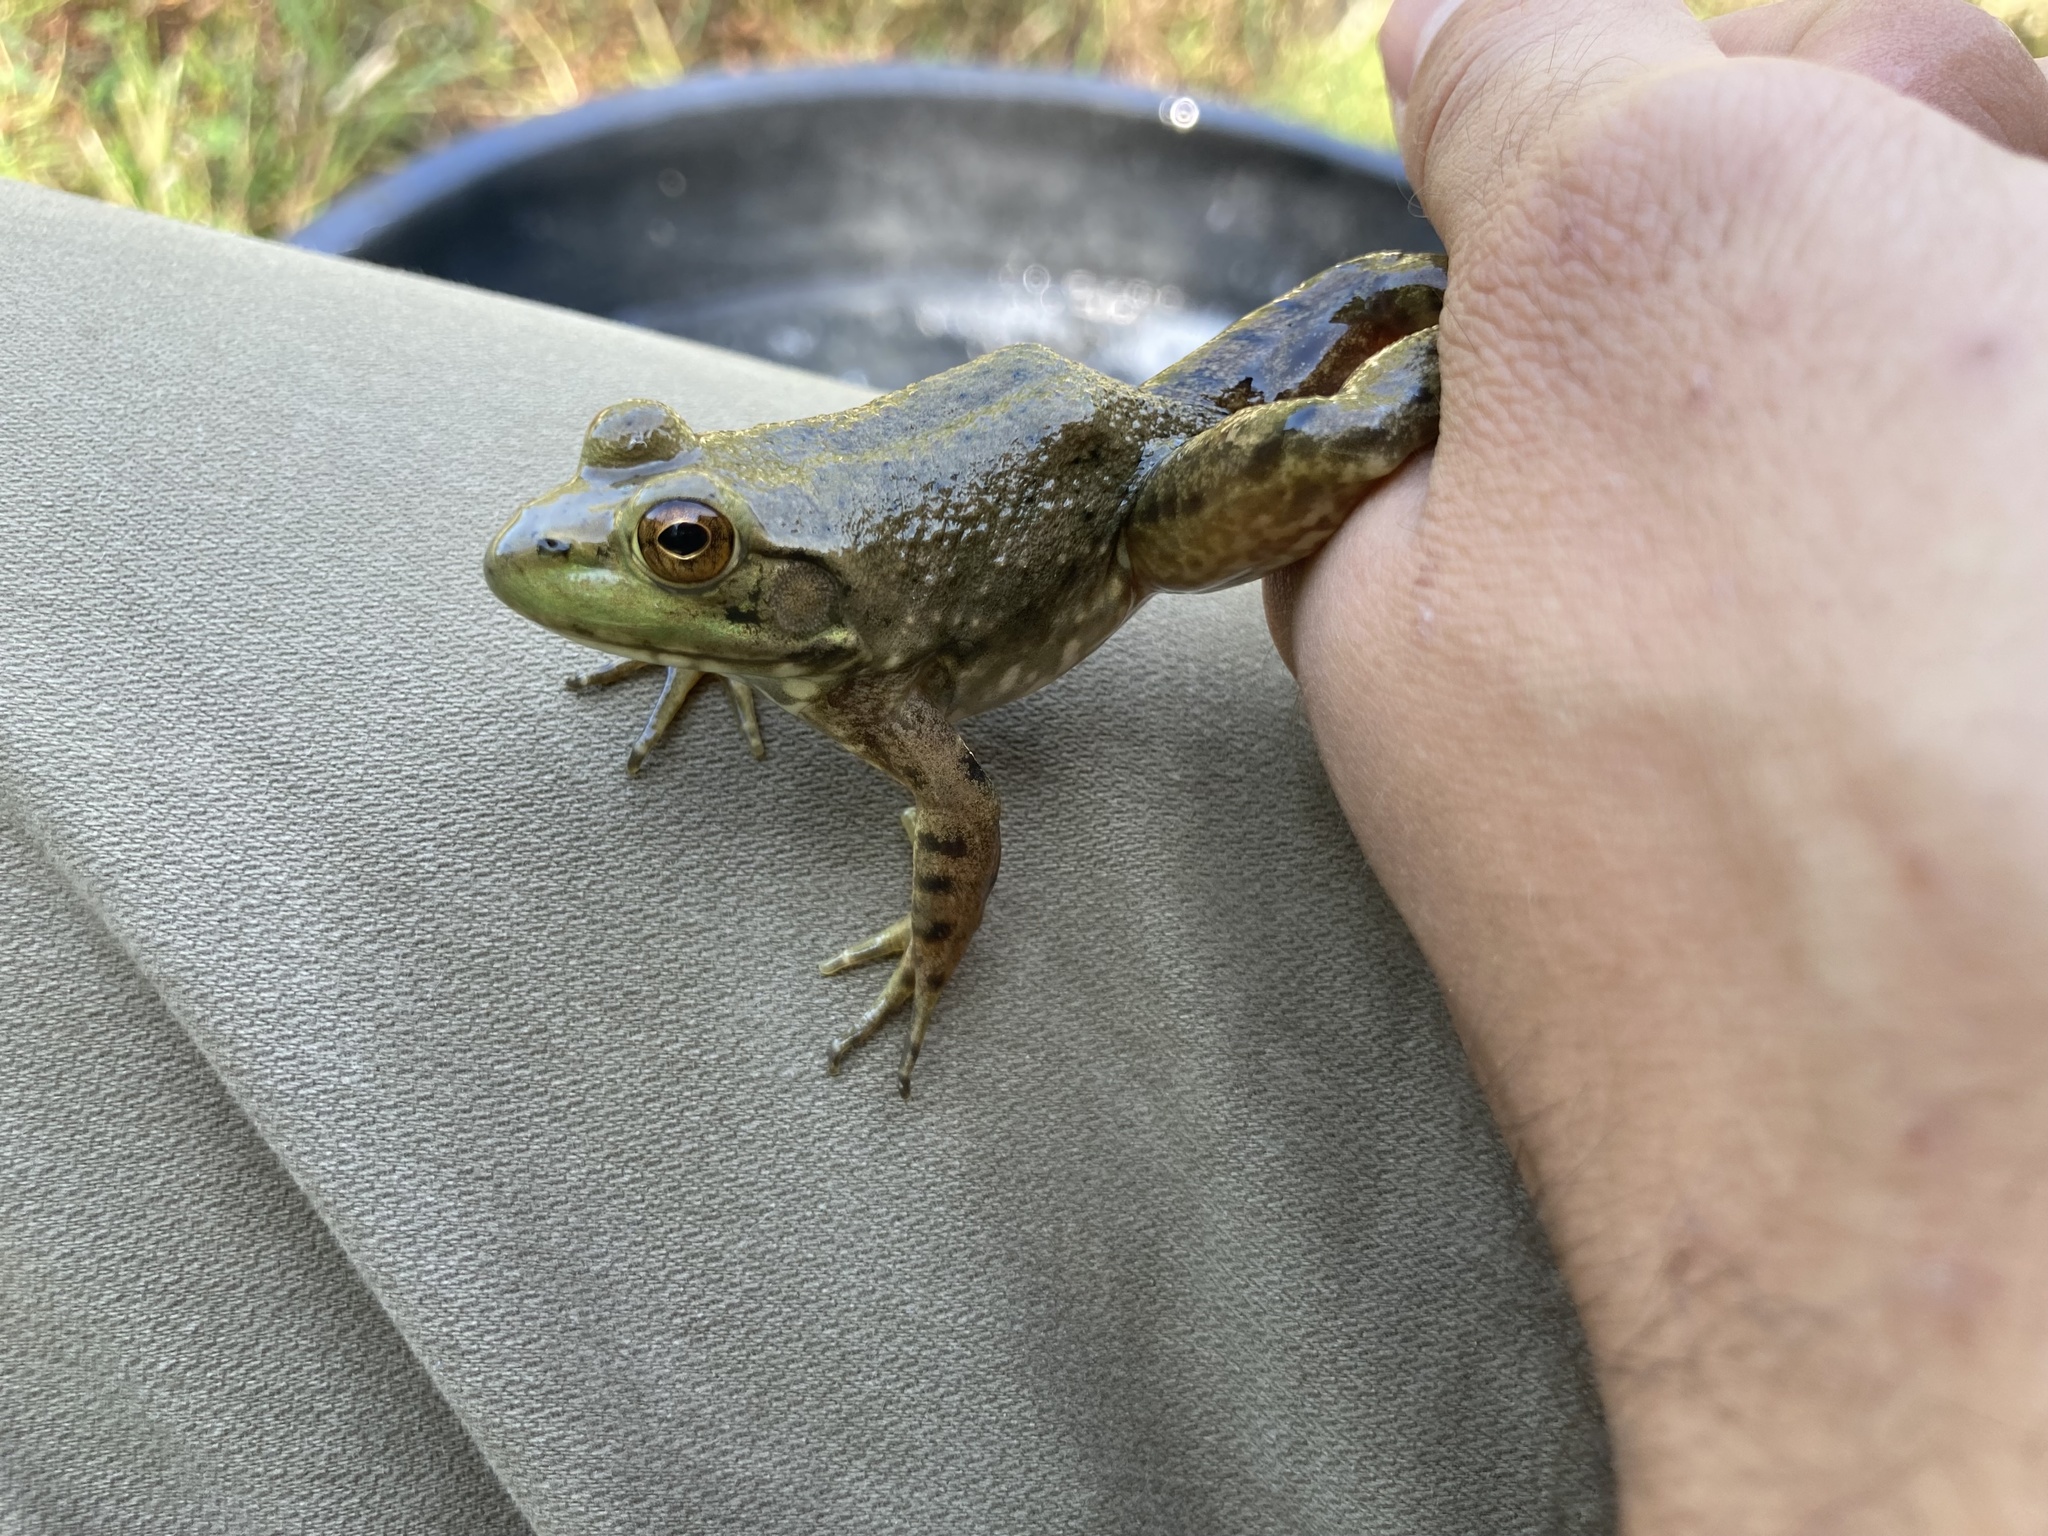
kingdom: Animalia
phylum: Chordata
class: Amphibia
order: Anura
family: Ranidae
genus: Lithobates
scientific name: Lithobates catesbeianus
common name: American bullfrog
